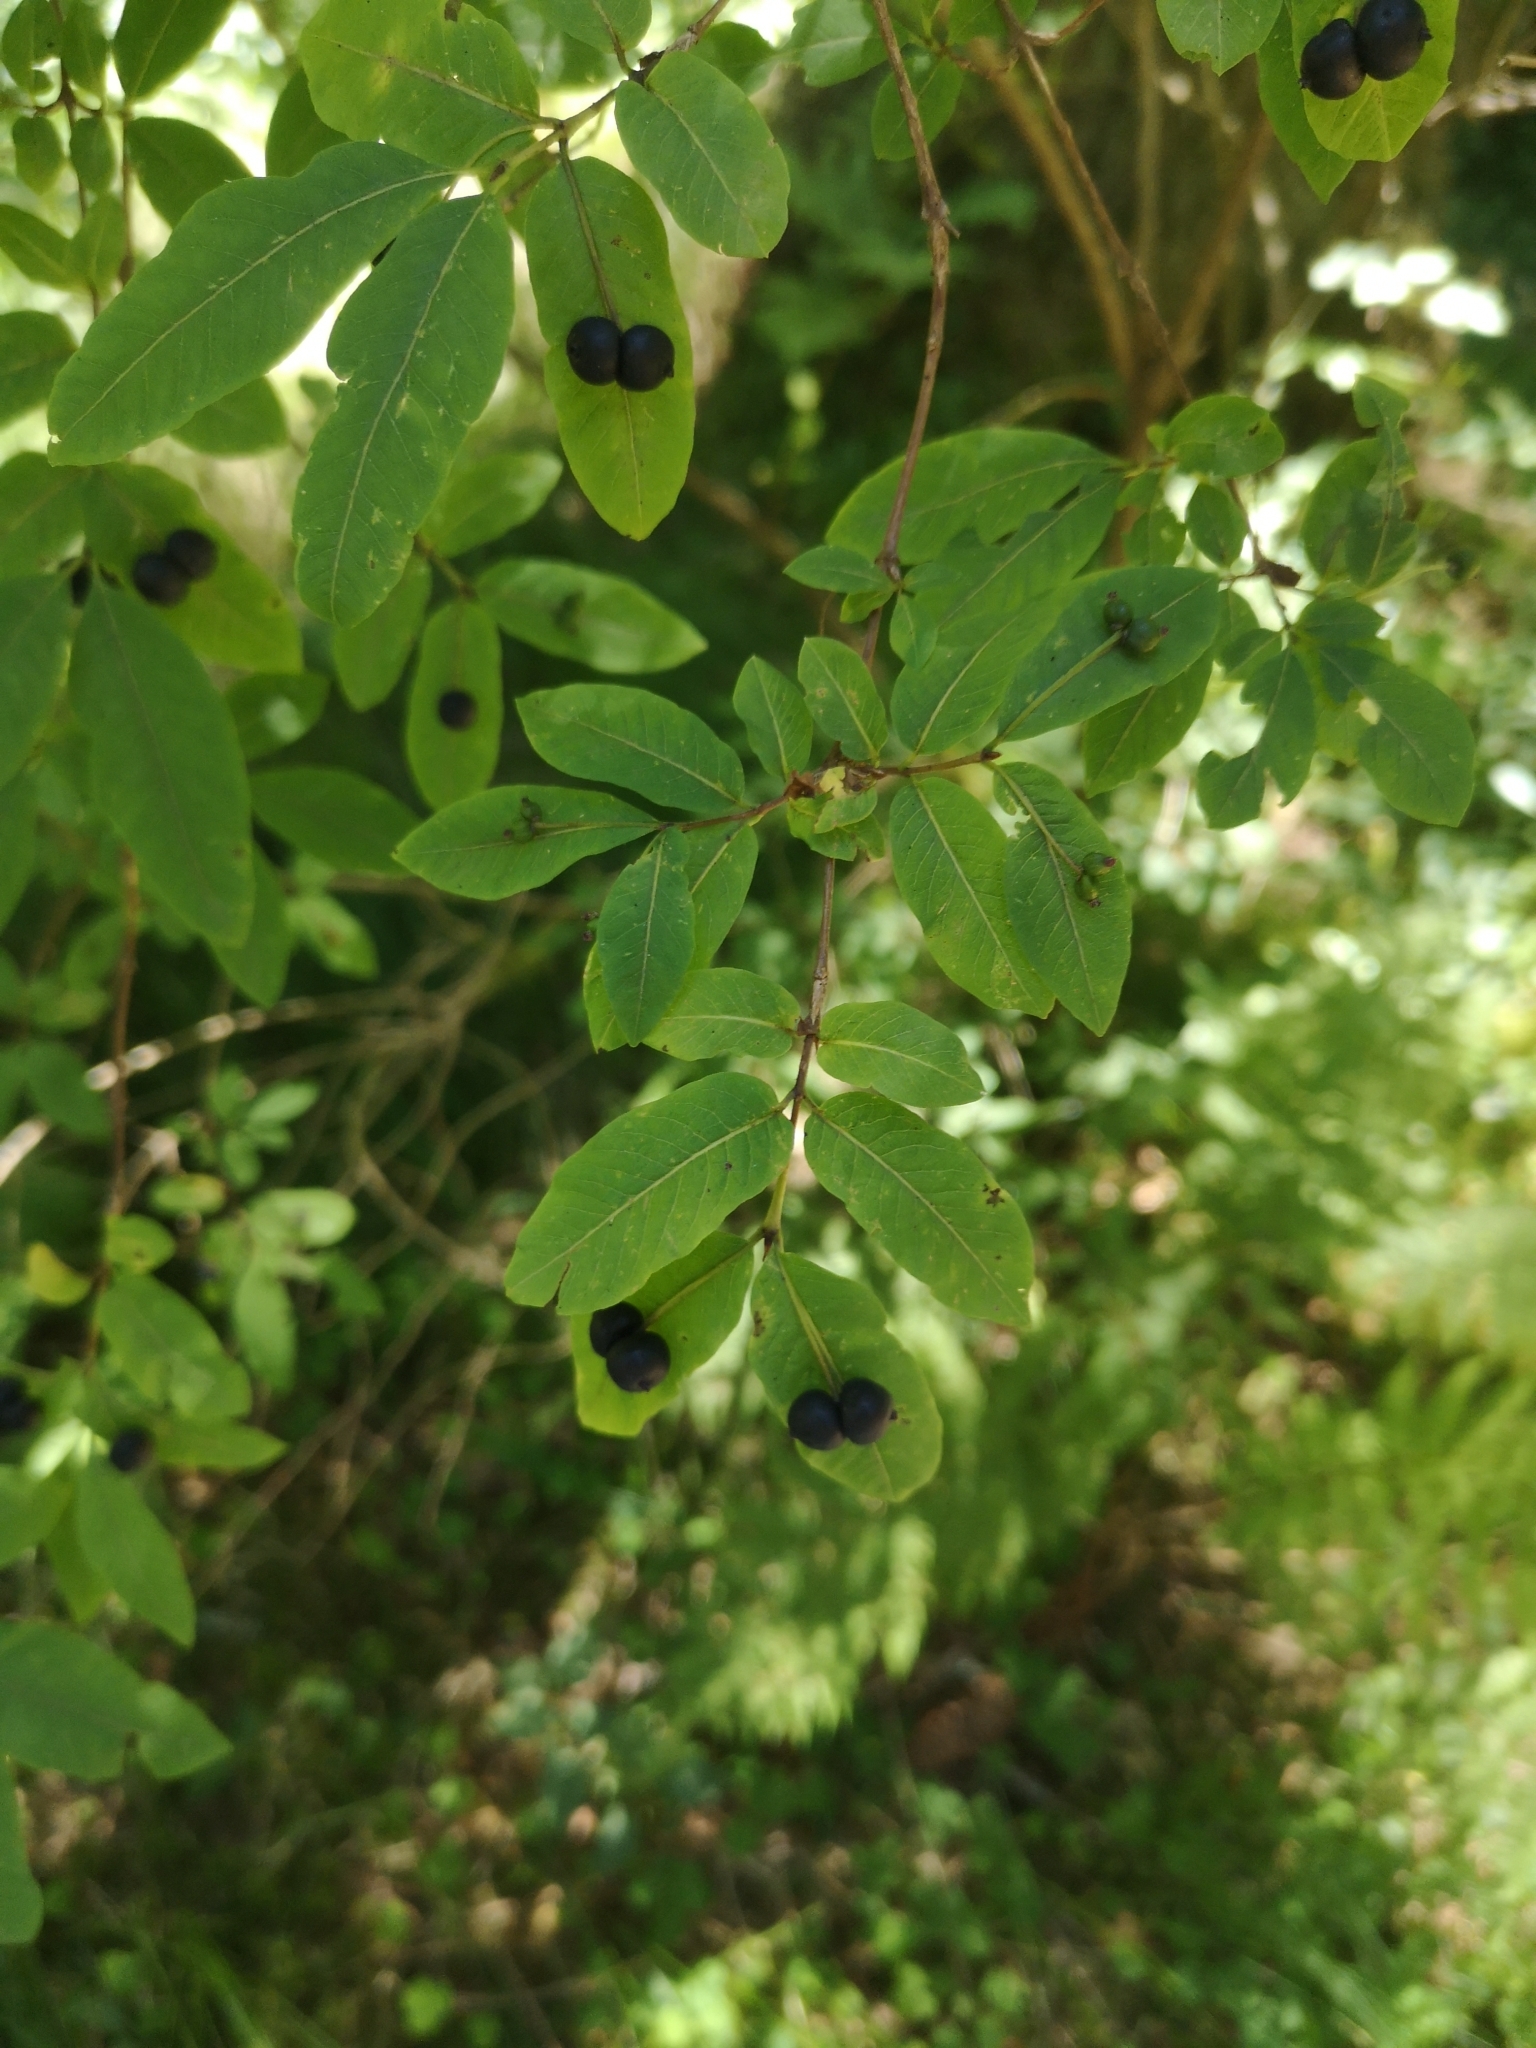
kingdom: Plantae
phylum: Tracheophyta
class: Magnoliopsida
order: Dipsacales
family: Caprifoliaceae
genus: Lonicera
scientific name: Lonicera nigra
